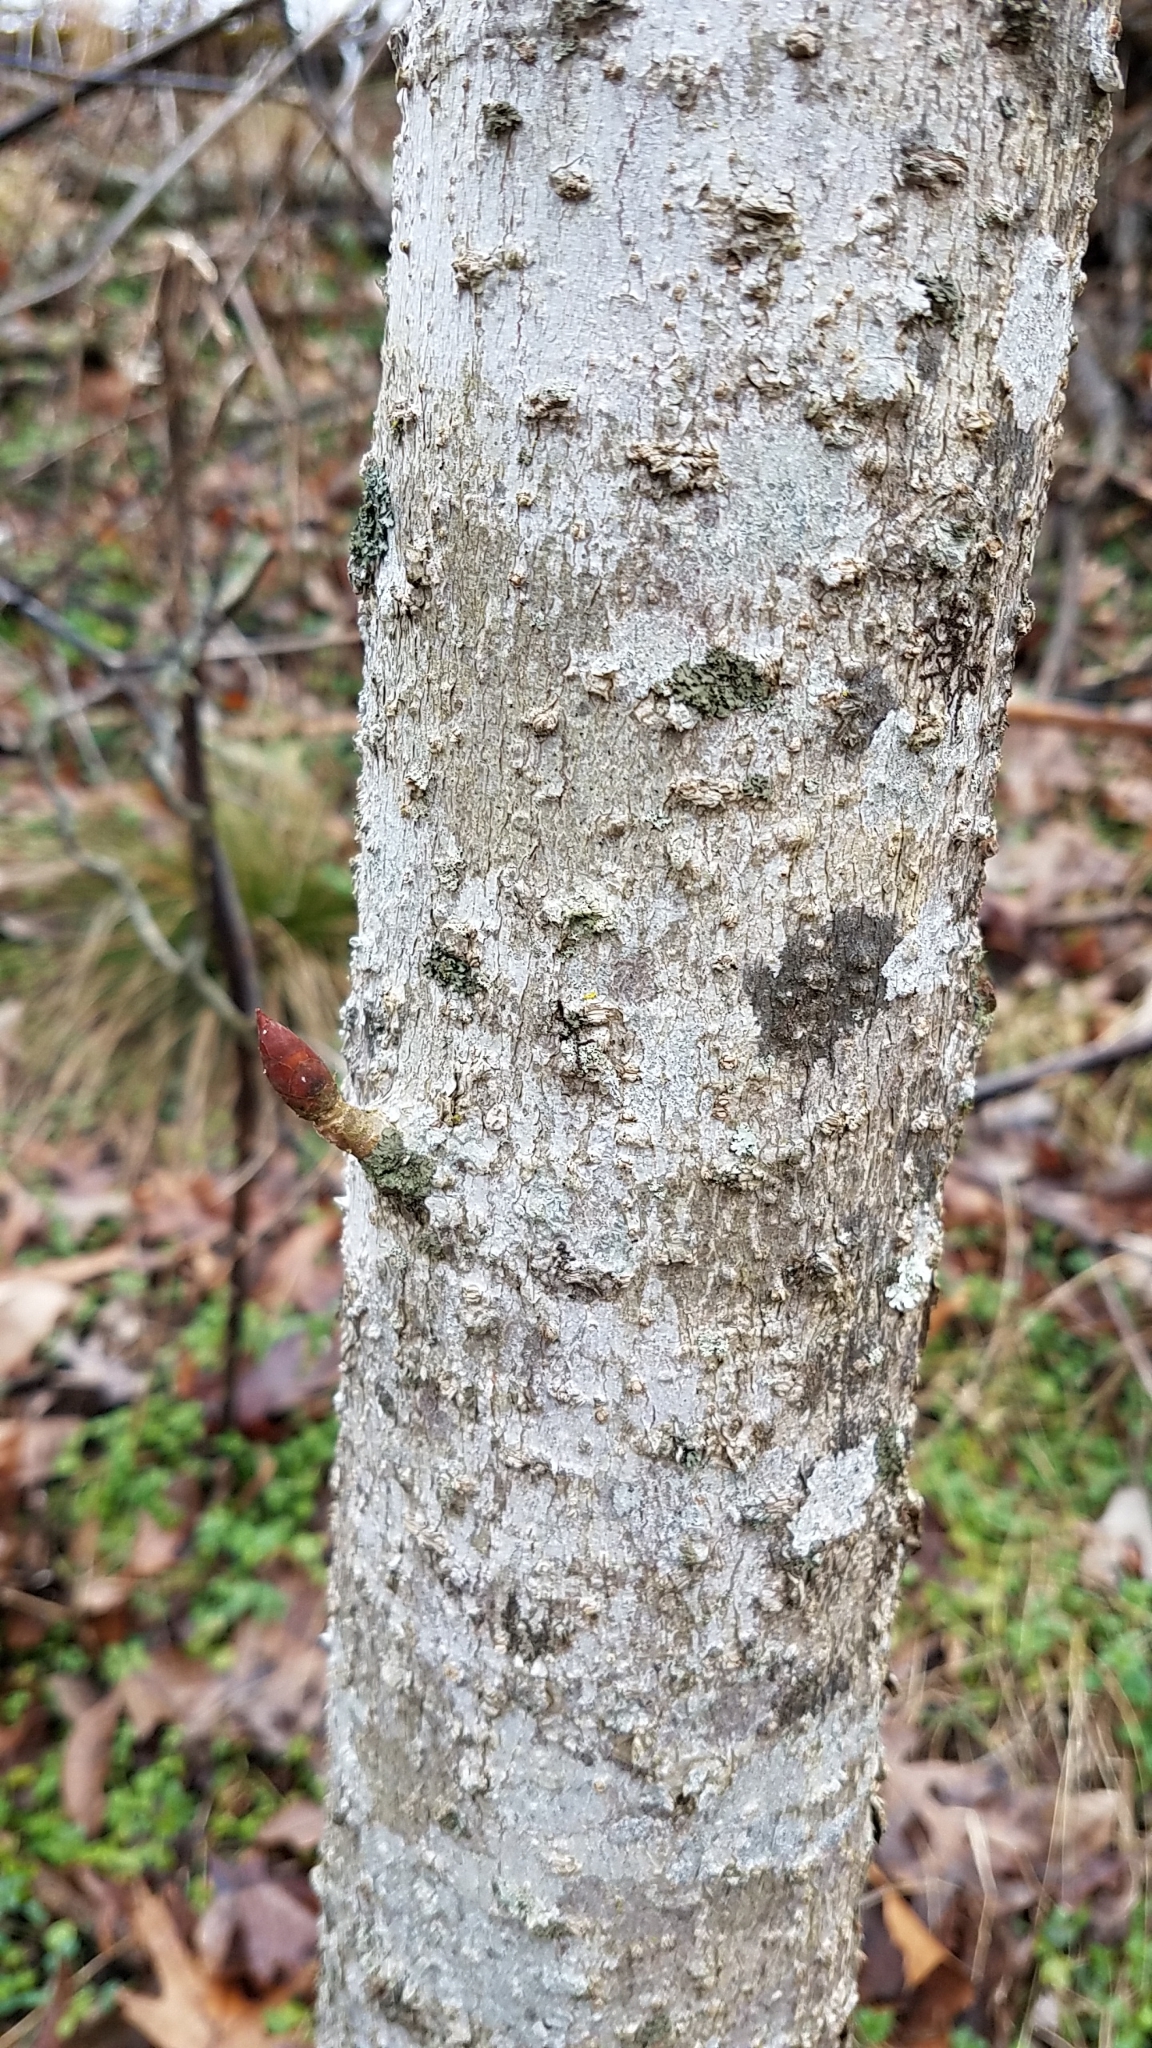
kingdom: Plantae
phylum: Tracheophyta
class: Magnoliopsida
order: Sapindales
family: Sapindaceae
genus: Acer
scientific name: Acer saccharum
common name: Sugar maple
